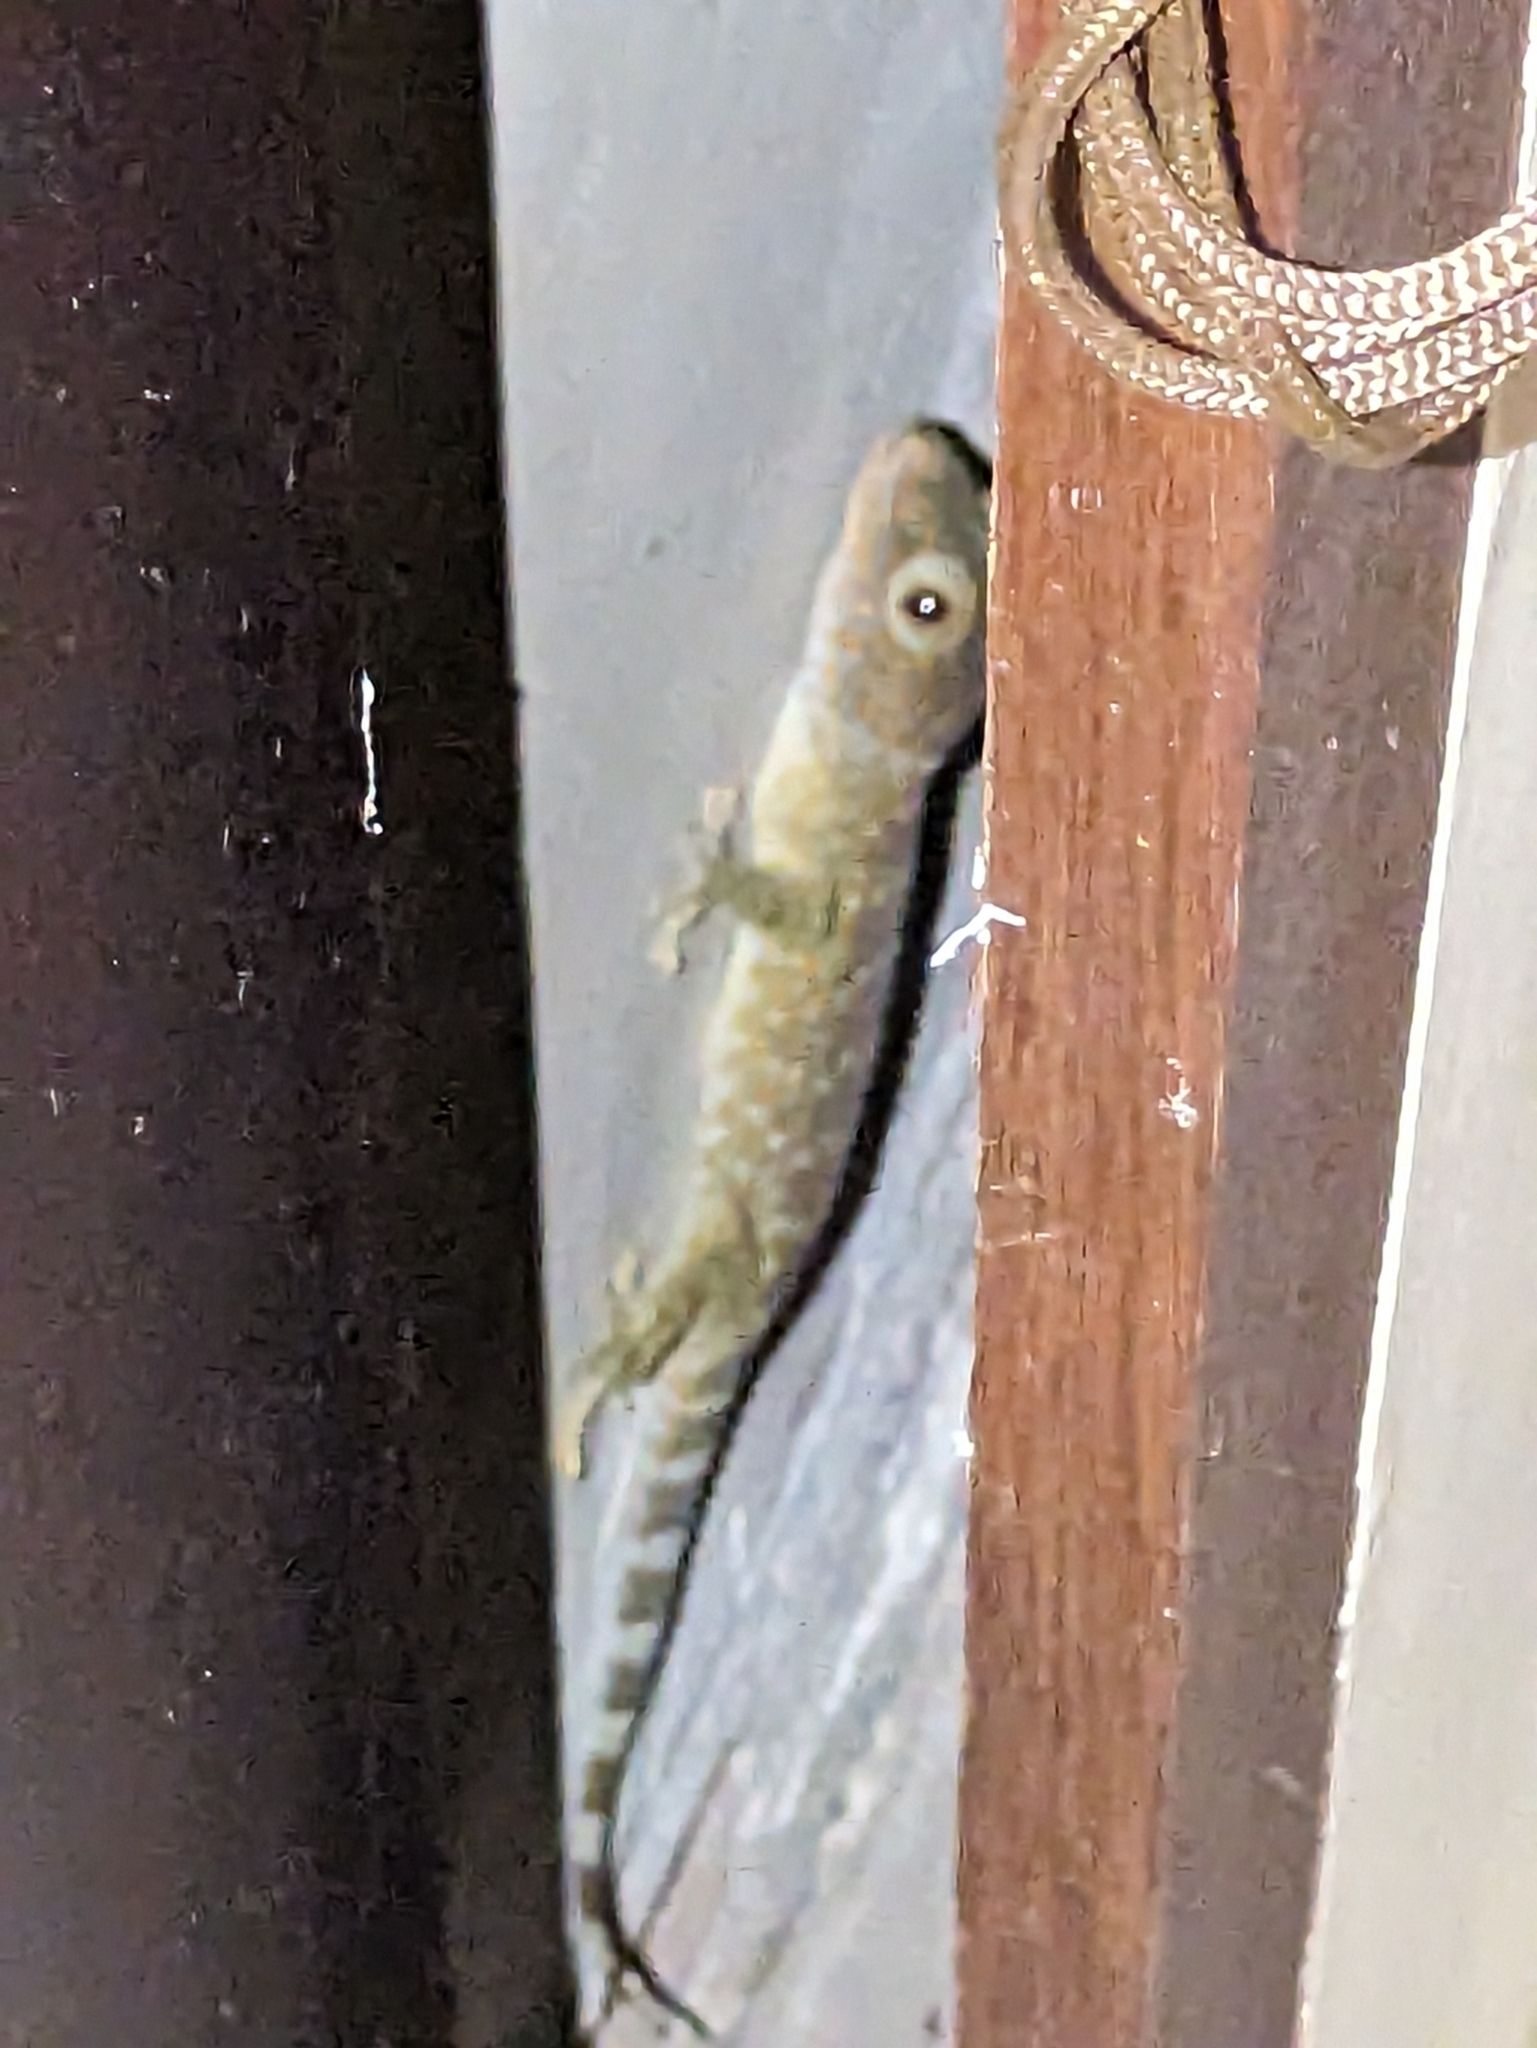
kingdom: Animalia
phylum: Chordata
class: Squamata
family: Gekkonidae
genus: Gekko
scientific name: Gekko gecko
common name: Tokay gecko
